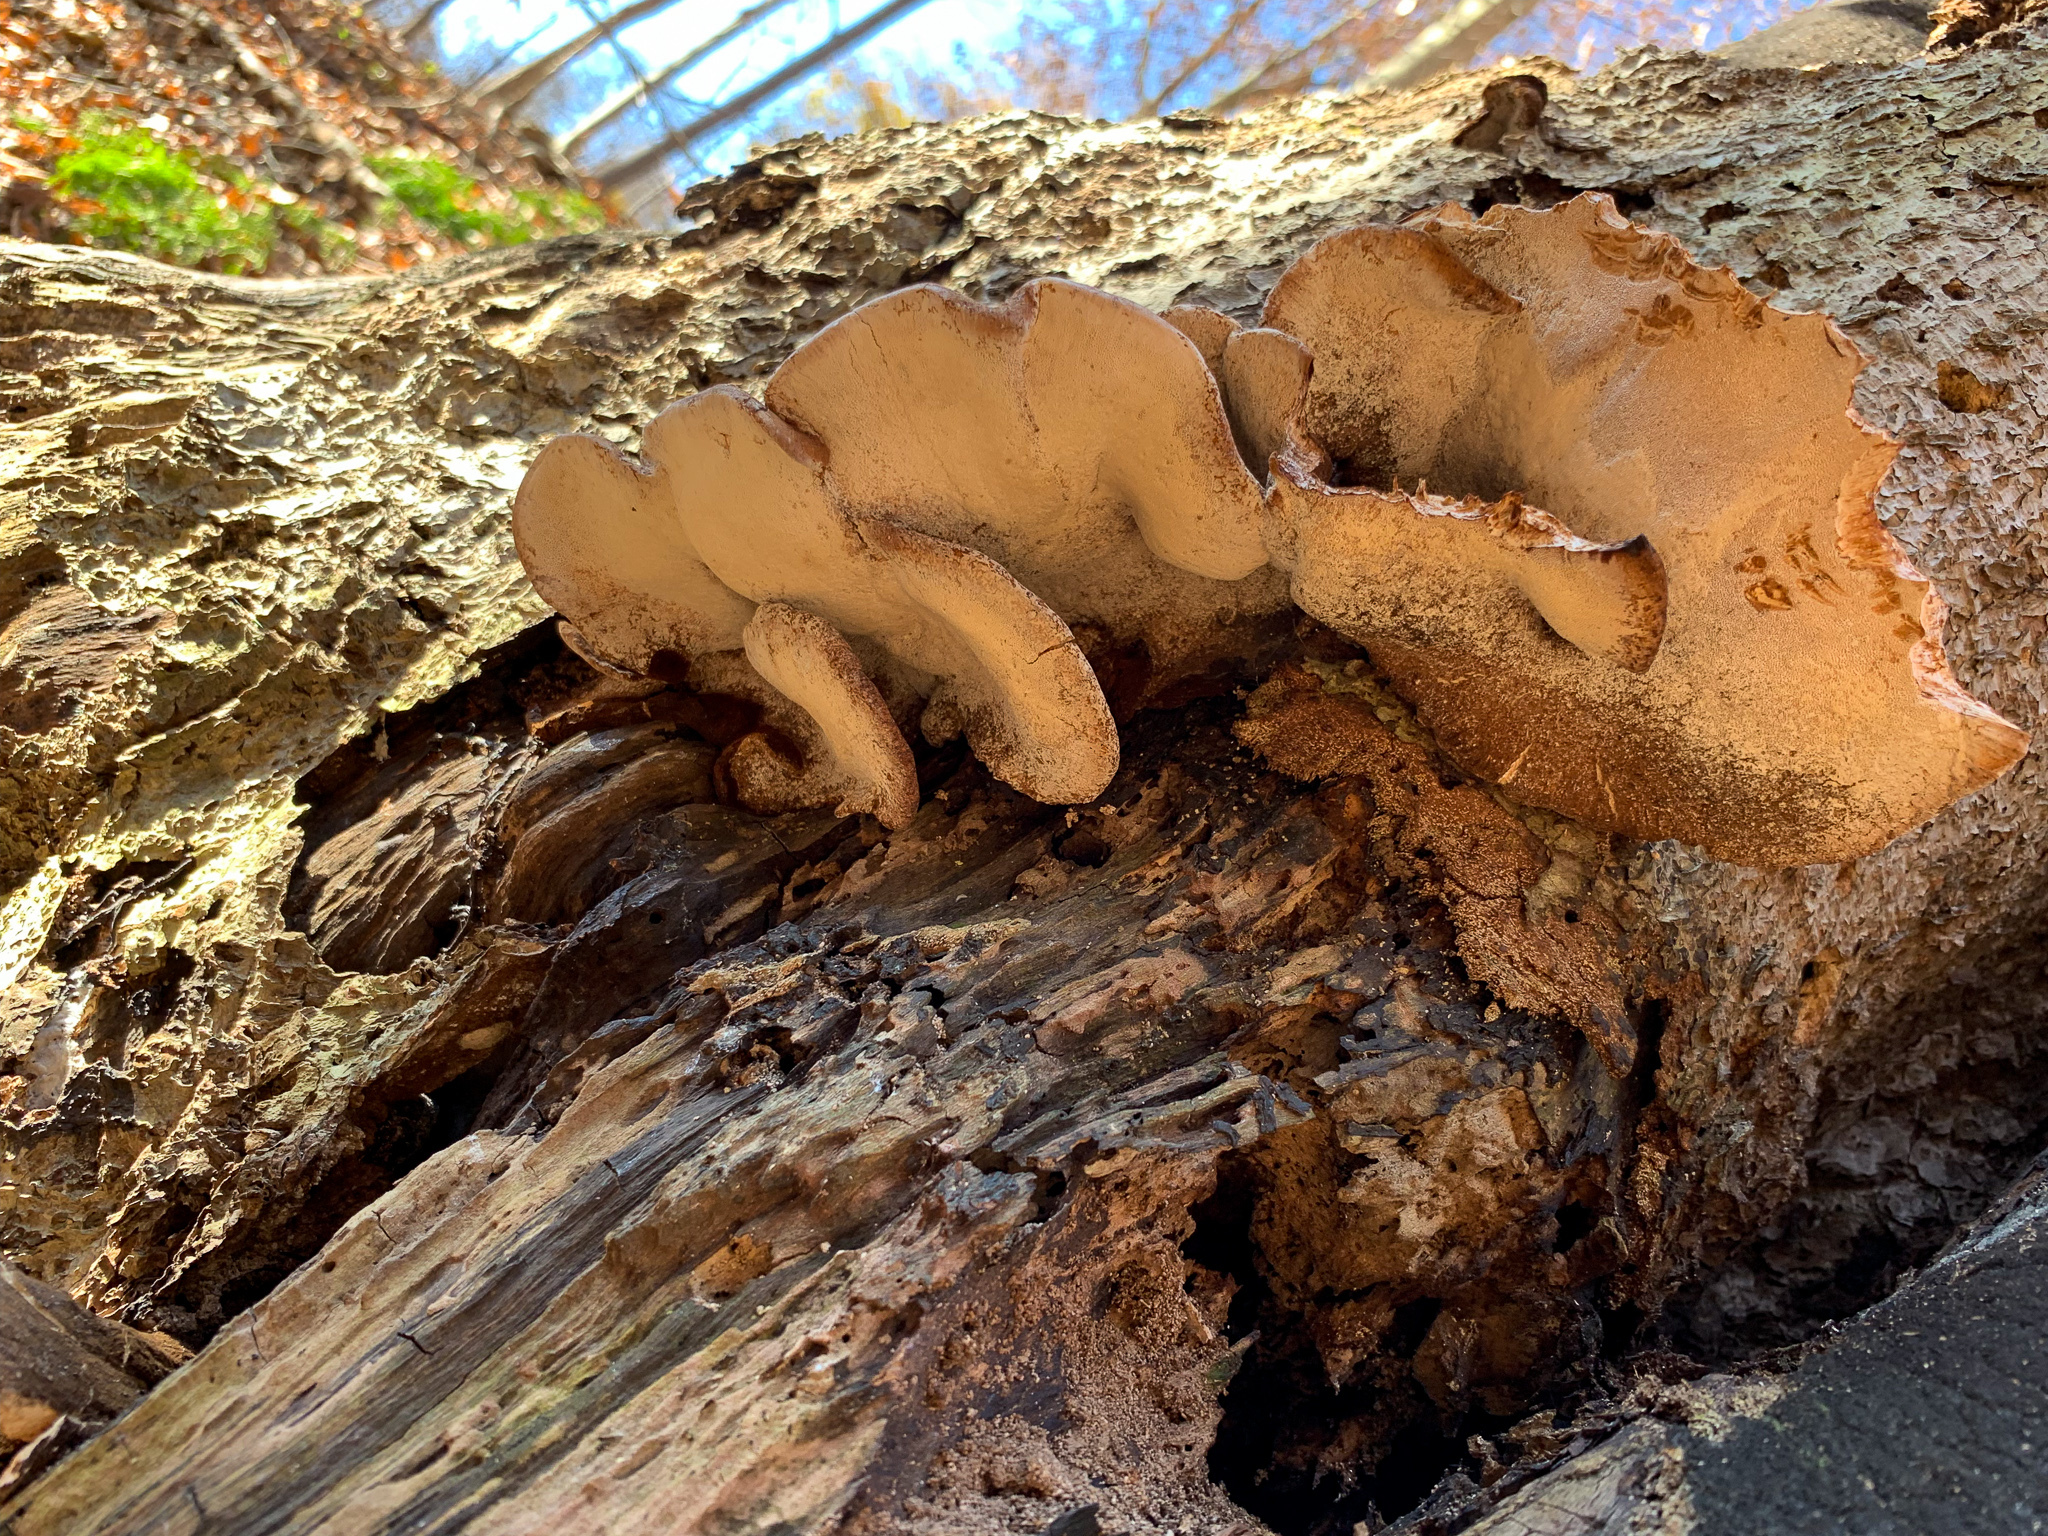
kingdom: Fungi
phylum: Basidiomycota
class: Agaricomycetes
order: Polyporales
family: Ischnodermataceae
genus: Ischnoderma
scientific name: Ischnoderma resinosum
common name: Resinous polypore
